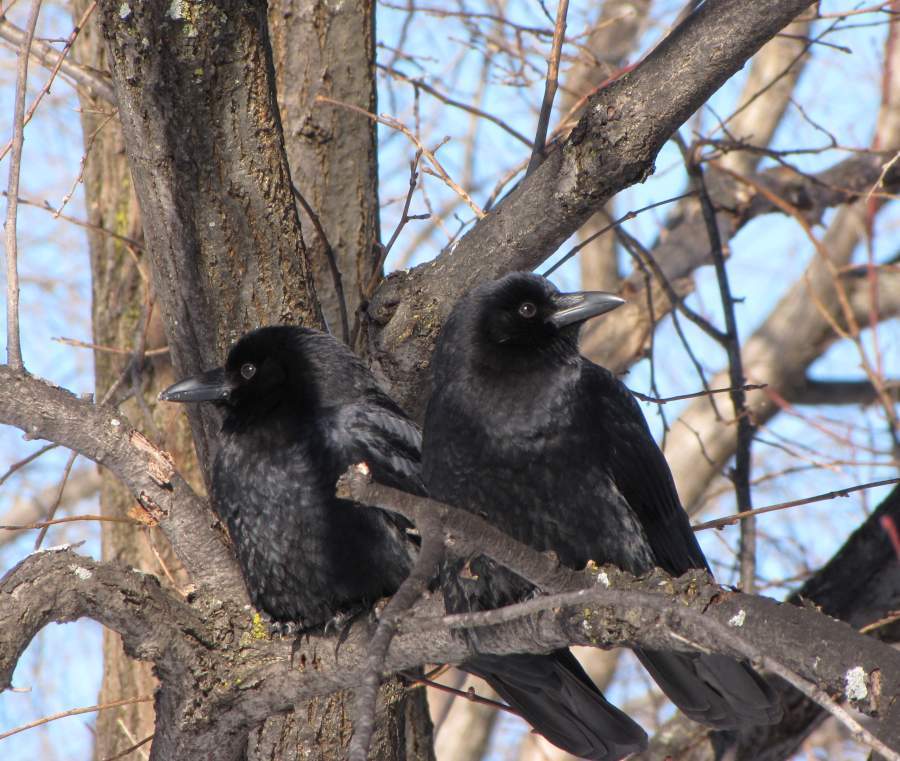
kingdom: Animalia
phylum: Chordata
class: Aves
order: Passeriformes
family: Corvidae
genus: Corvus
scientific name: Corvus brachyrhynchos
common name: American crow
